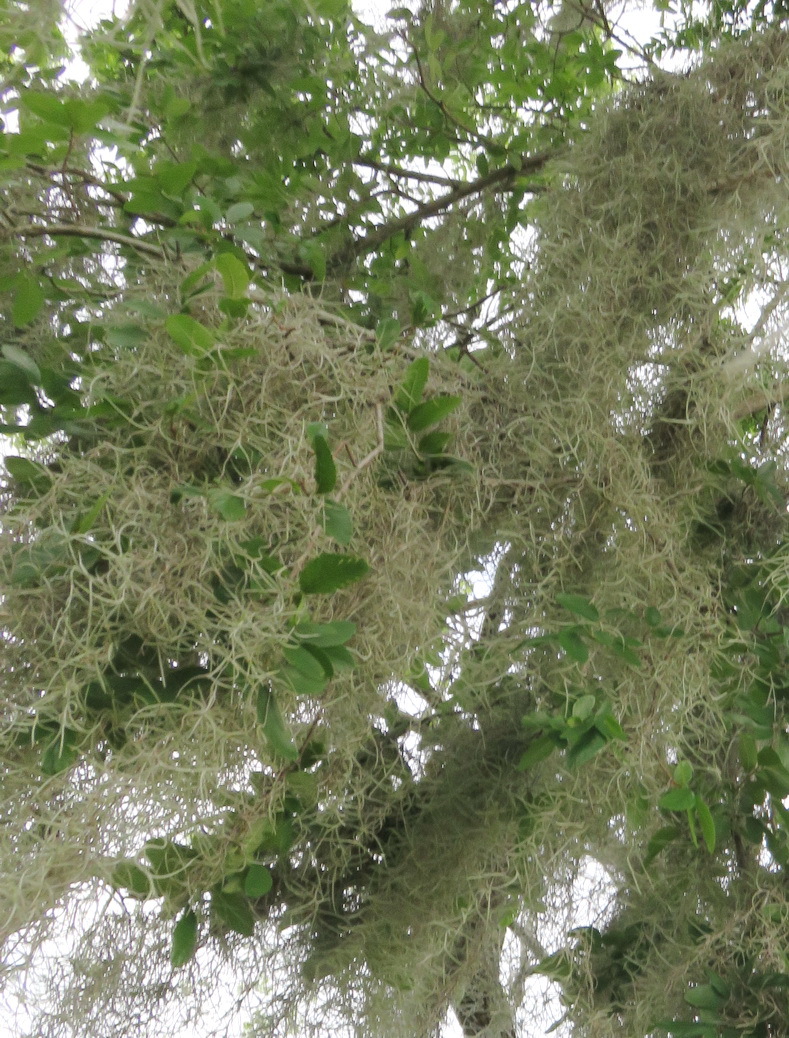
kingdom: Plantae
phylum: Tracheophyta
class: Liliopsida
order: Poales
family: Bromeliaceae
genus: Tillandsia
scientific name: Tillandsia usneoides
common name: Spanish moss
